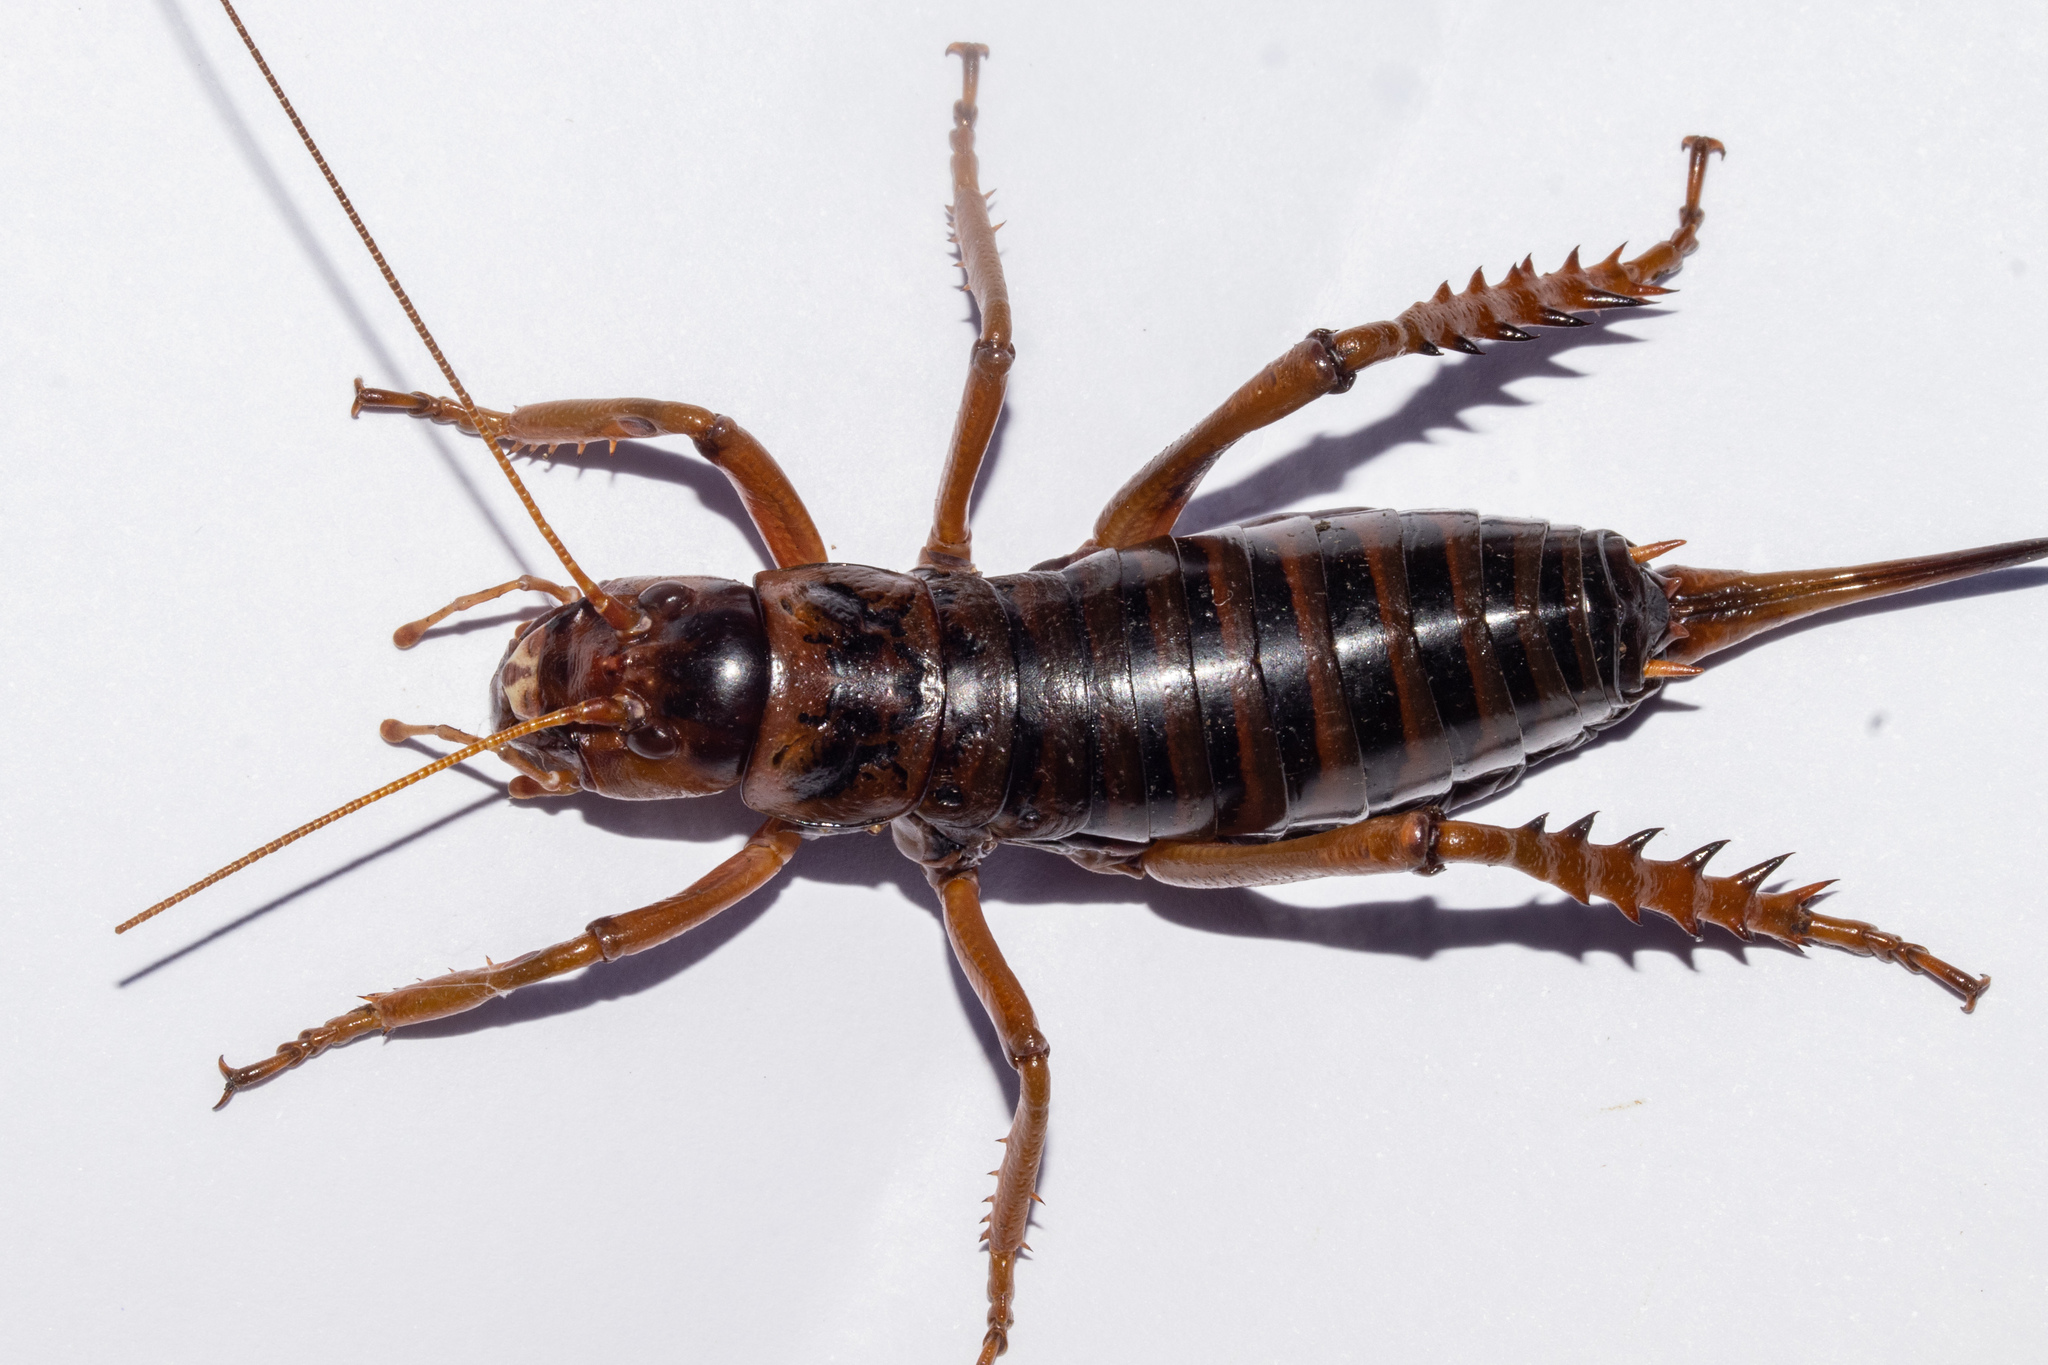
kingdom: Animalia
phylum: Arthropoda
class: Insecta
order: Orthoptera
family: Anostostomatidae
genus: Hemideina
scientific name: Hemideina maori
